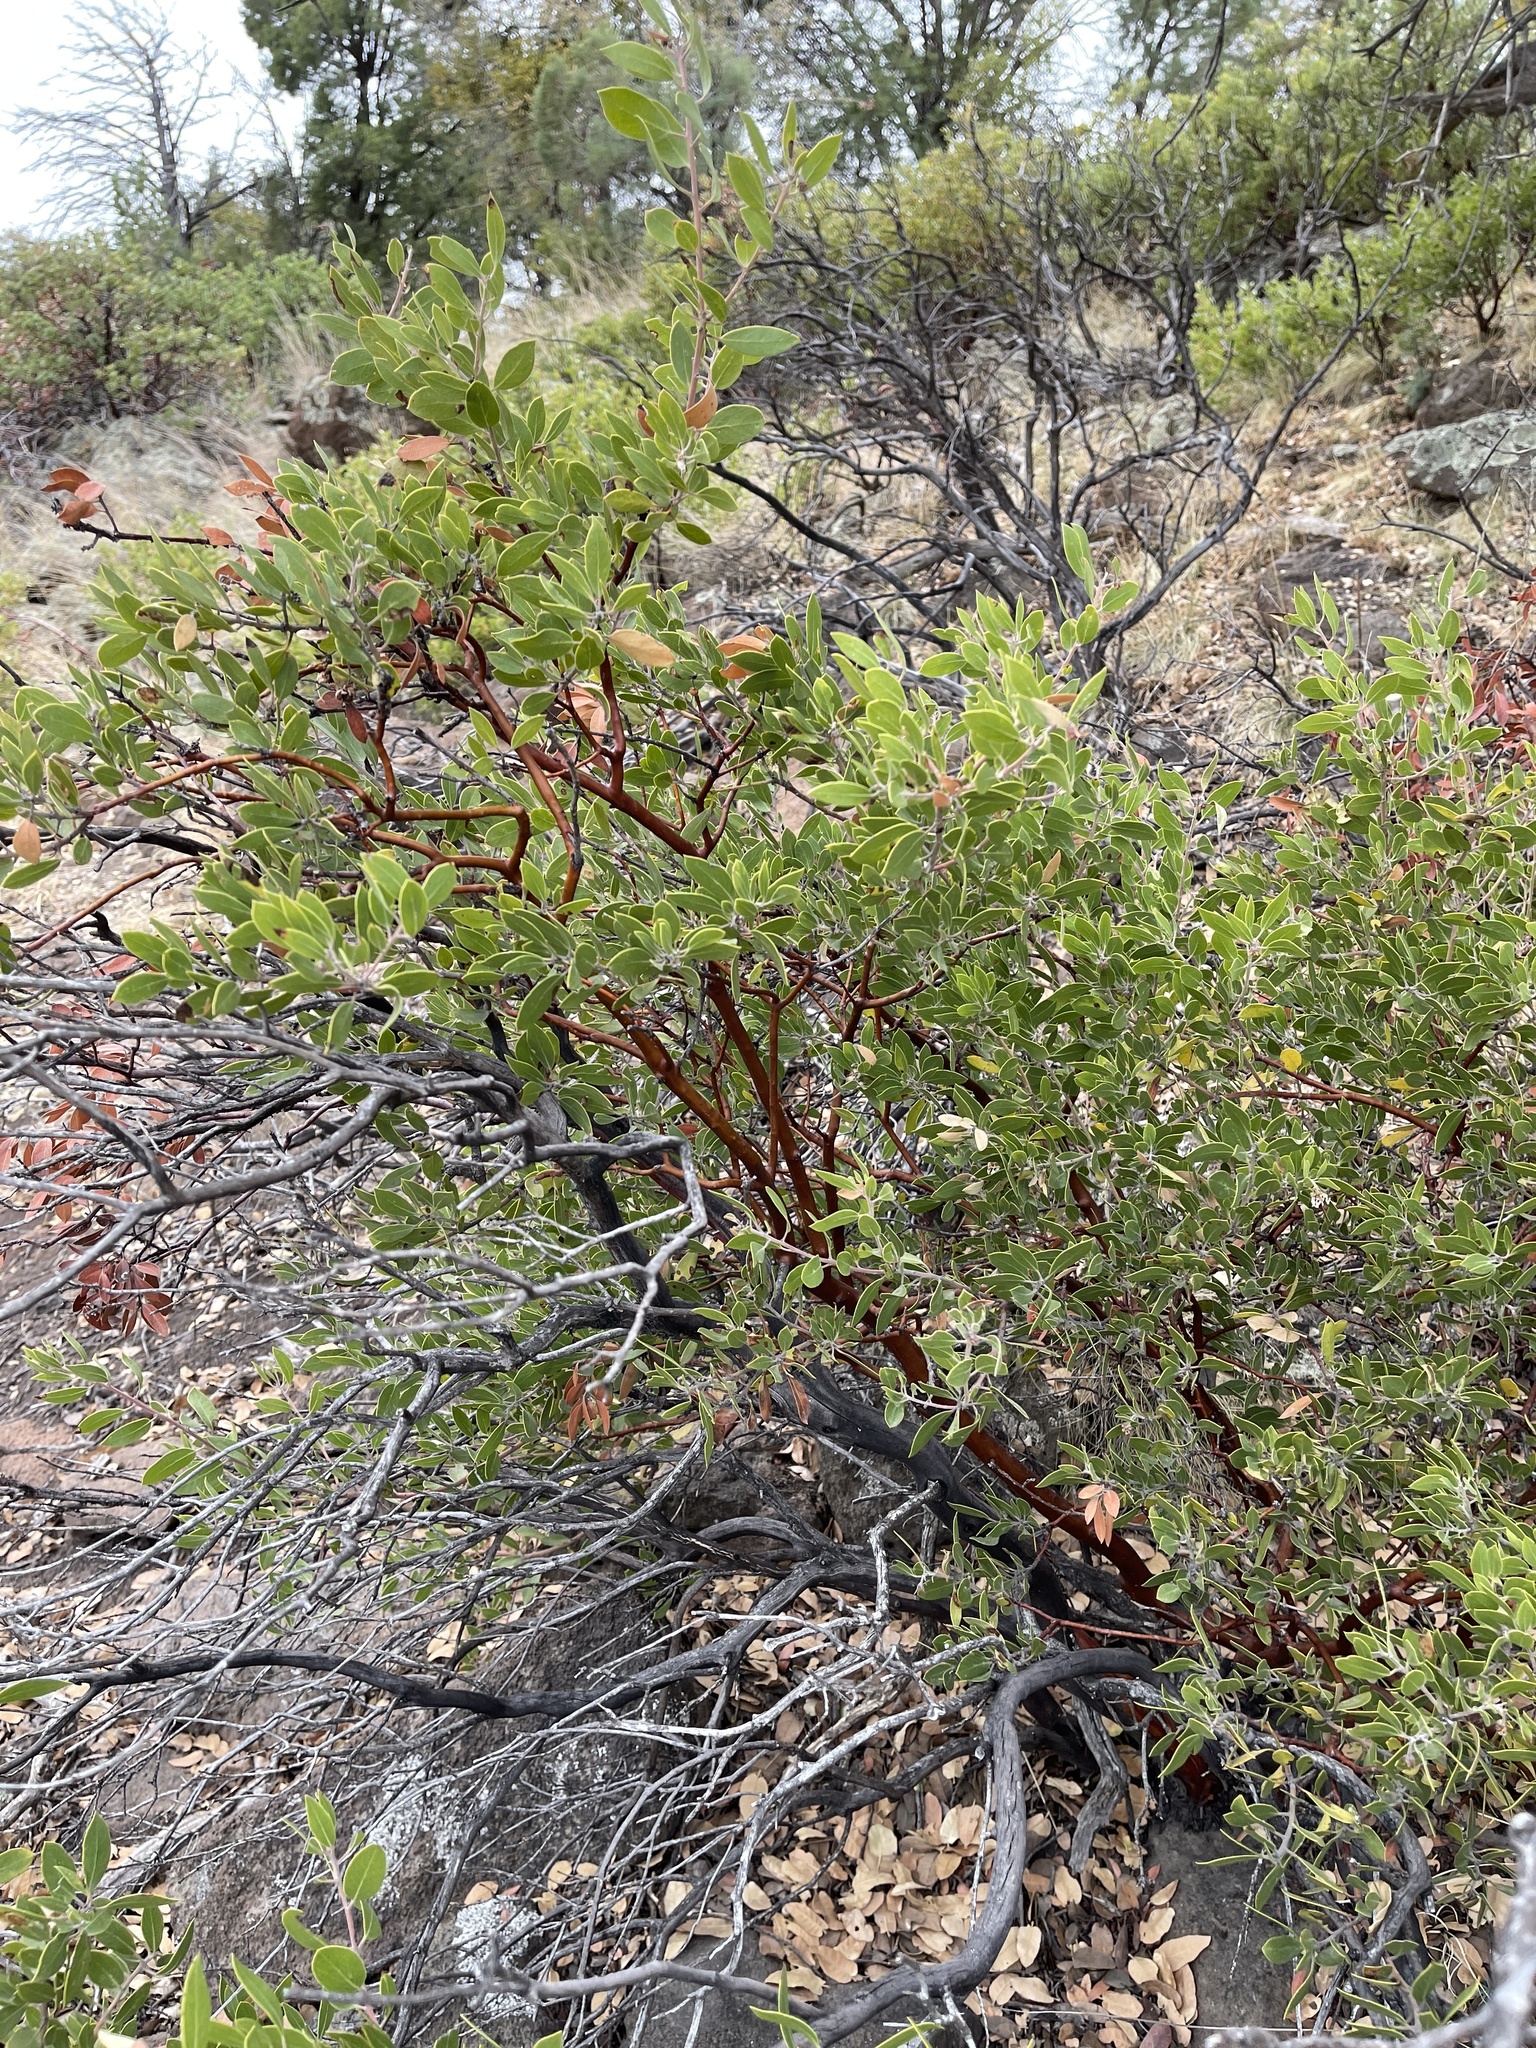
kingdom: Plantae
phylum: Tracheophyta
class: Magnoliopsida
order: Ericales
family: Ericaceae
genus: Arctostaphylos
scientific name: Arctostaphylos pungens
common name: Mexican manzanita
